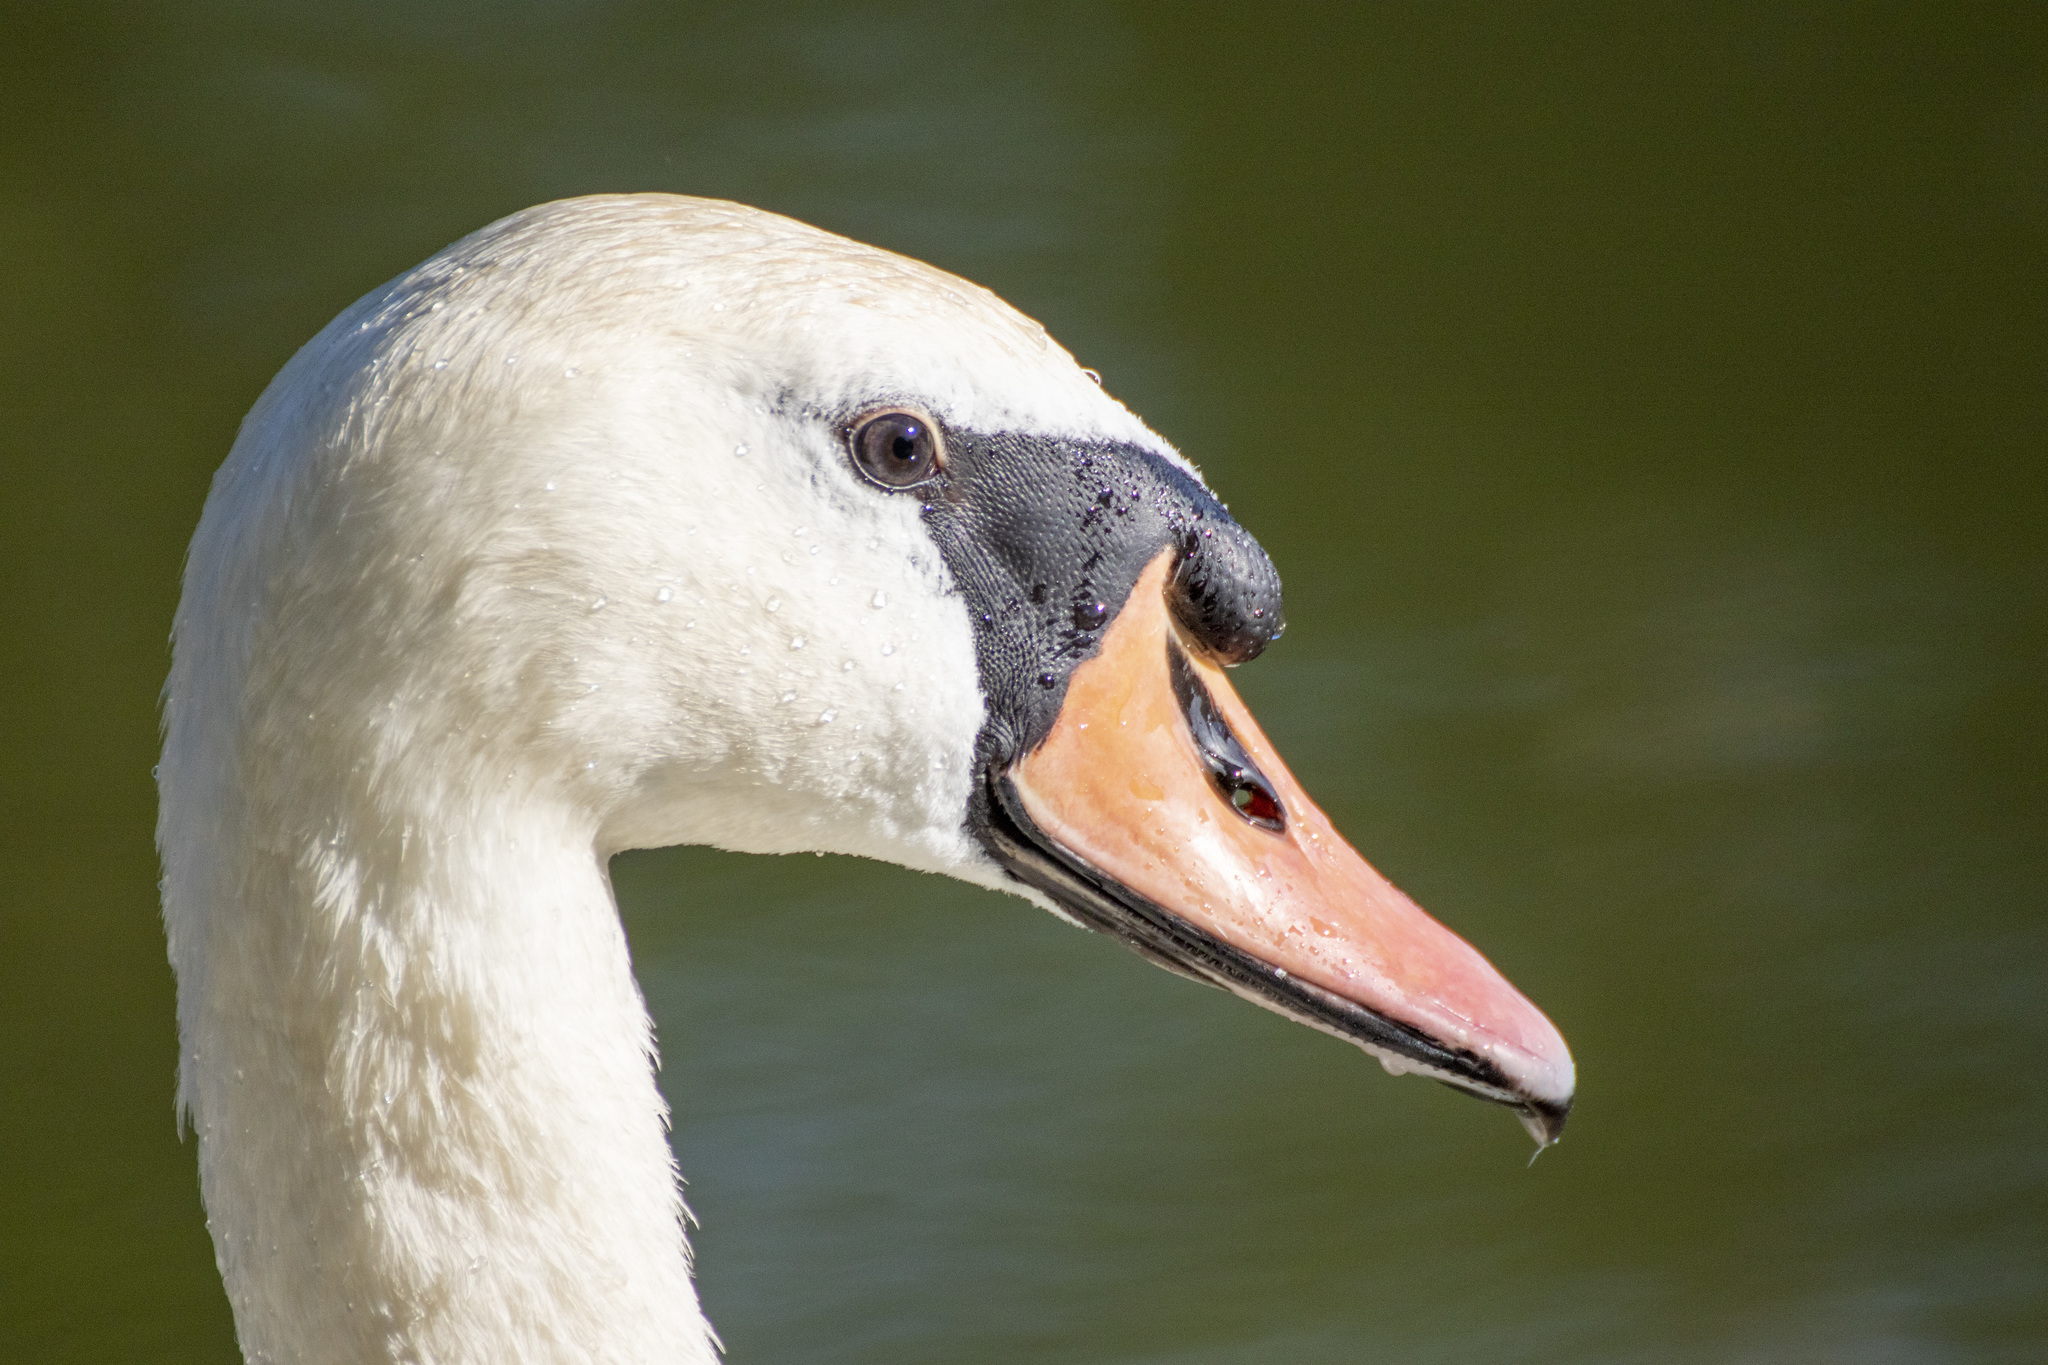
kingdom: Animalia
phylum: Chordata
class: Aves
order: Anseriformes
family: Anatidae
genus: Cygnus
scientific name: Cygnus olor
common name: Mute swan
